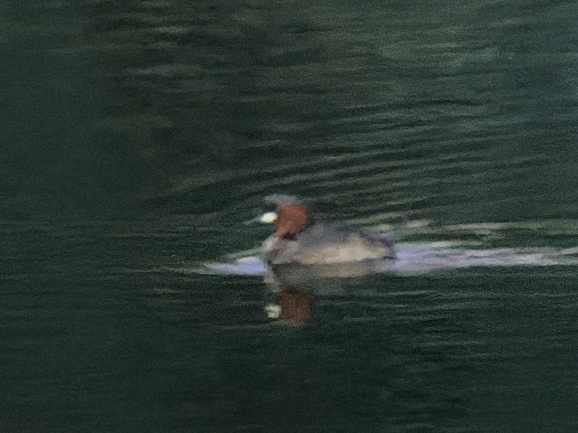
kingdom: Animalia
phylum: Chordata
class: Aves
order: Podicipediformes
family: Podicipedidae
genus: Tachybaptus
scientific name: Tachybaptus ruficollis
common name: Little grebe
